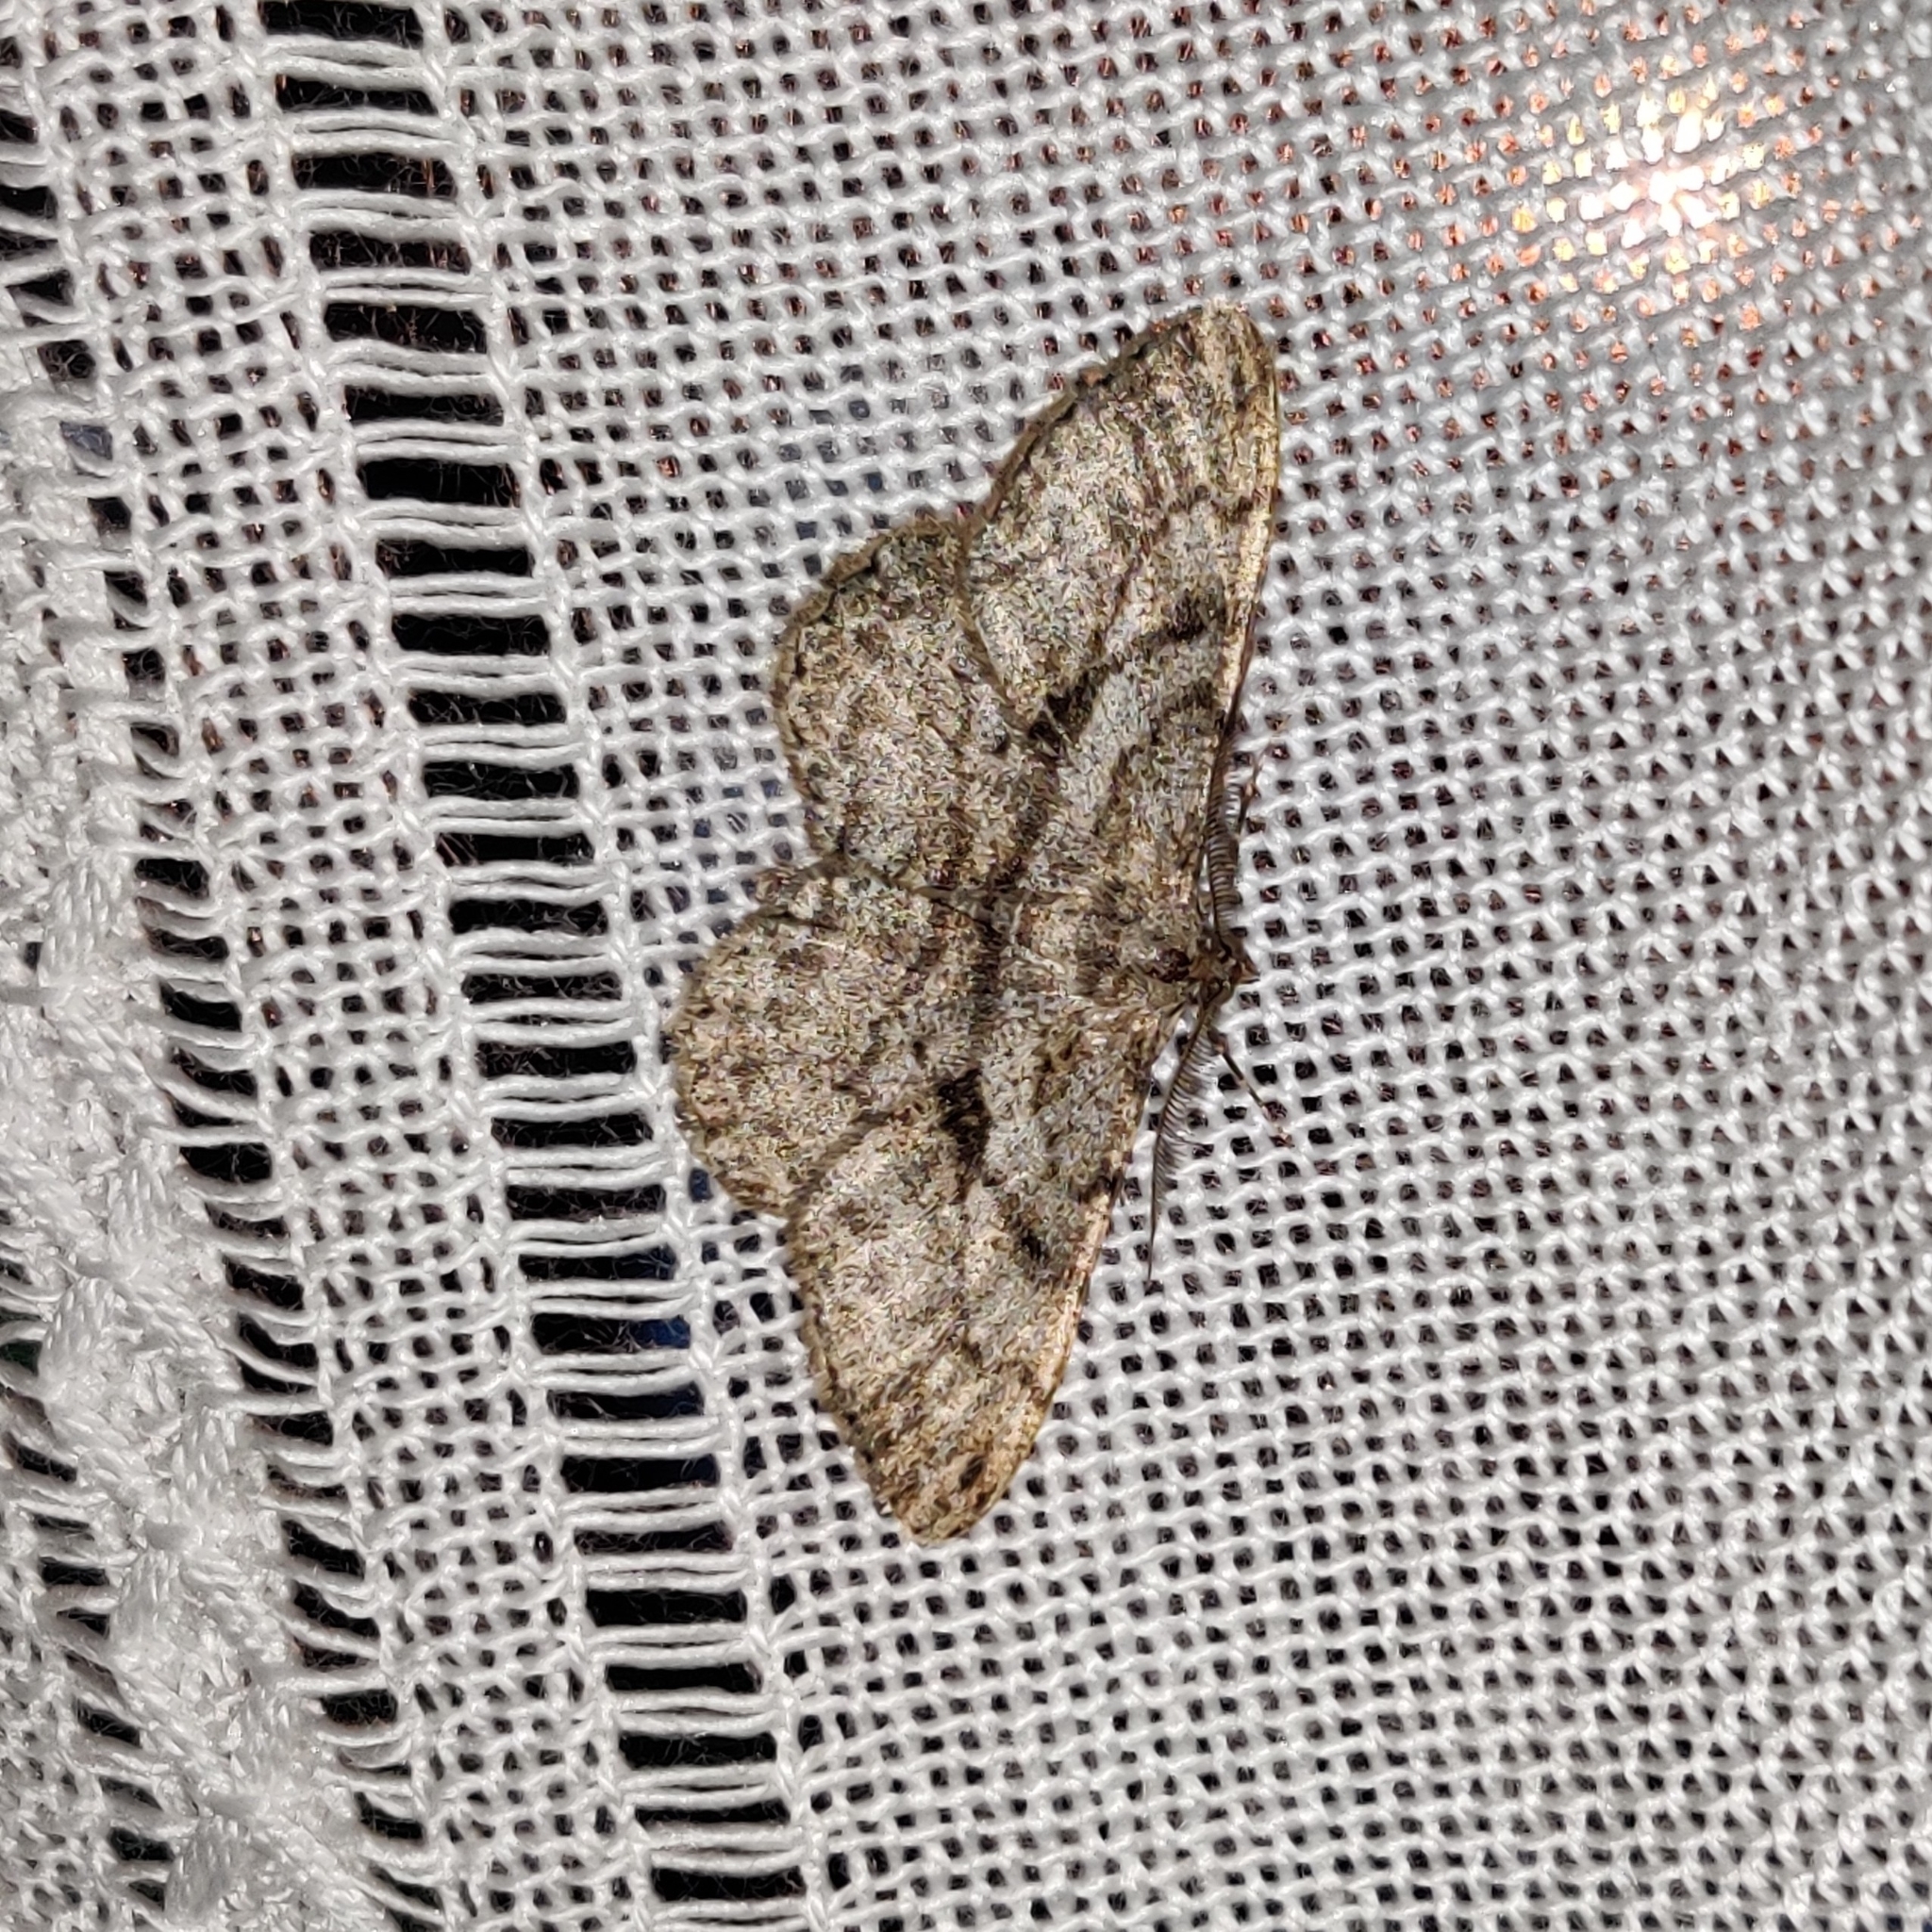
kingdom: Animalia
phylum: Arthropoda
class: Insecta
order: Lepidoptera
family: Geometridae
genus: Peribatodes
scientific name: Peribatodes rhomboidaria
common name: Willow beauty
